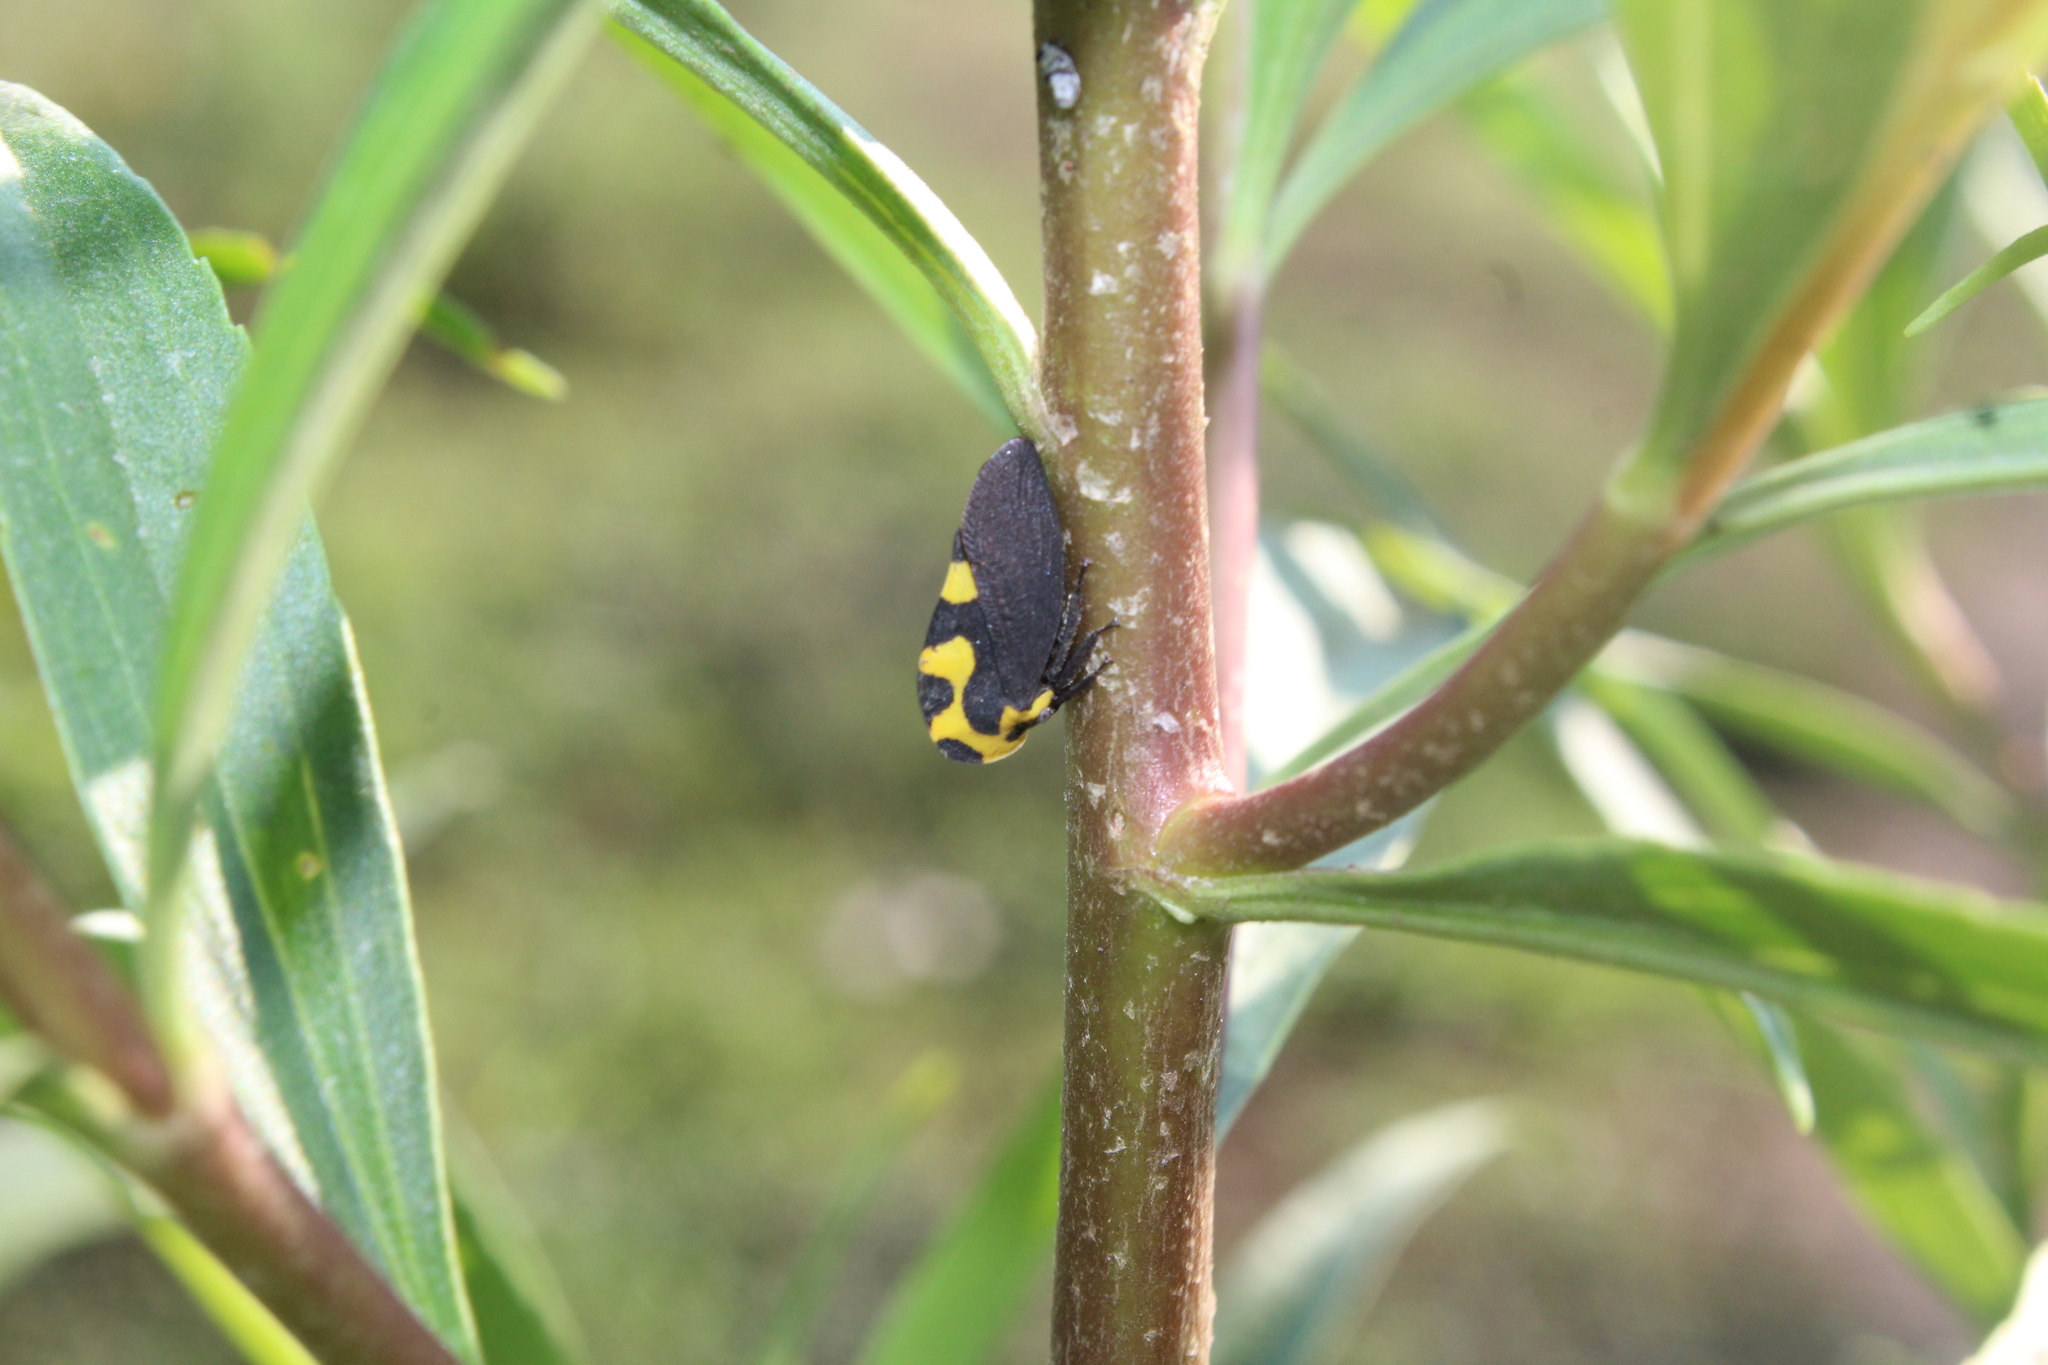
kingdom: Animalia
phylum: Arthropoda
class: Insecta
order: Hemiptera
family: Membracidae
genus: Membracis
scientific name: Membracis mexicana
